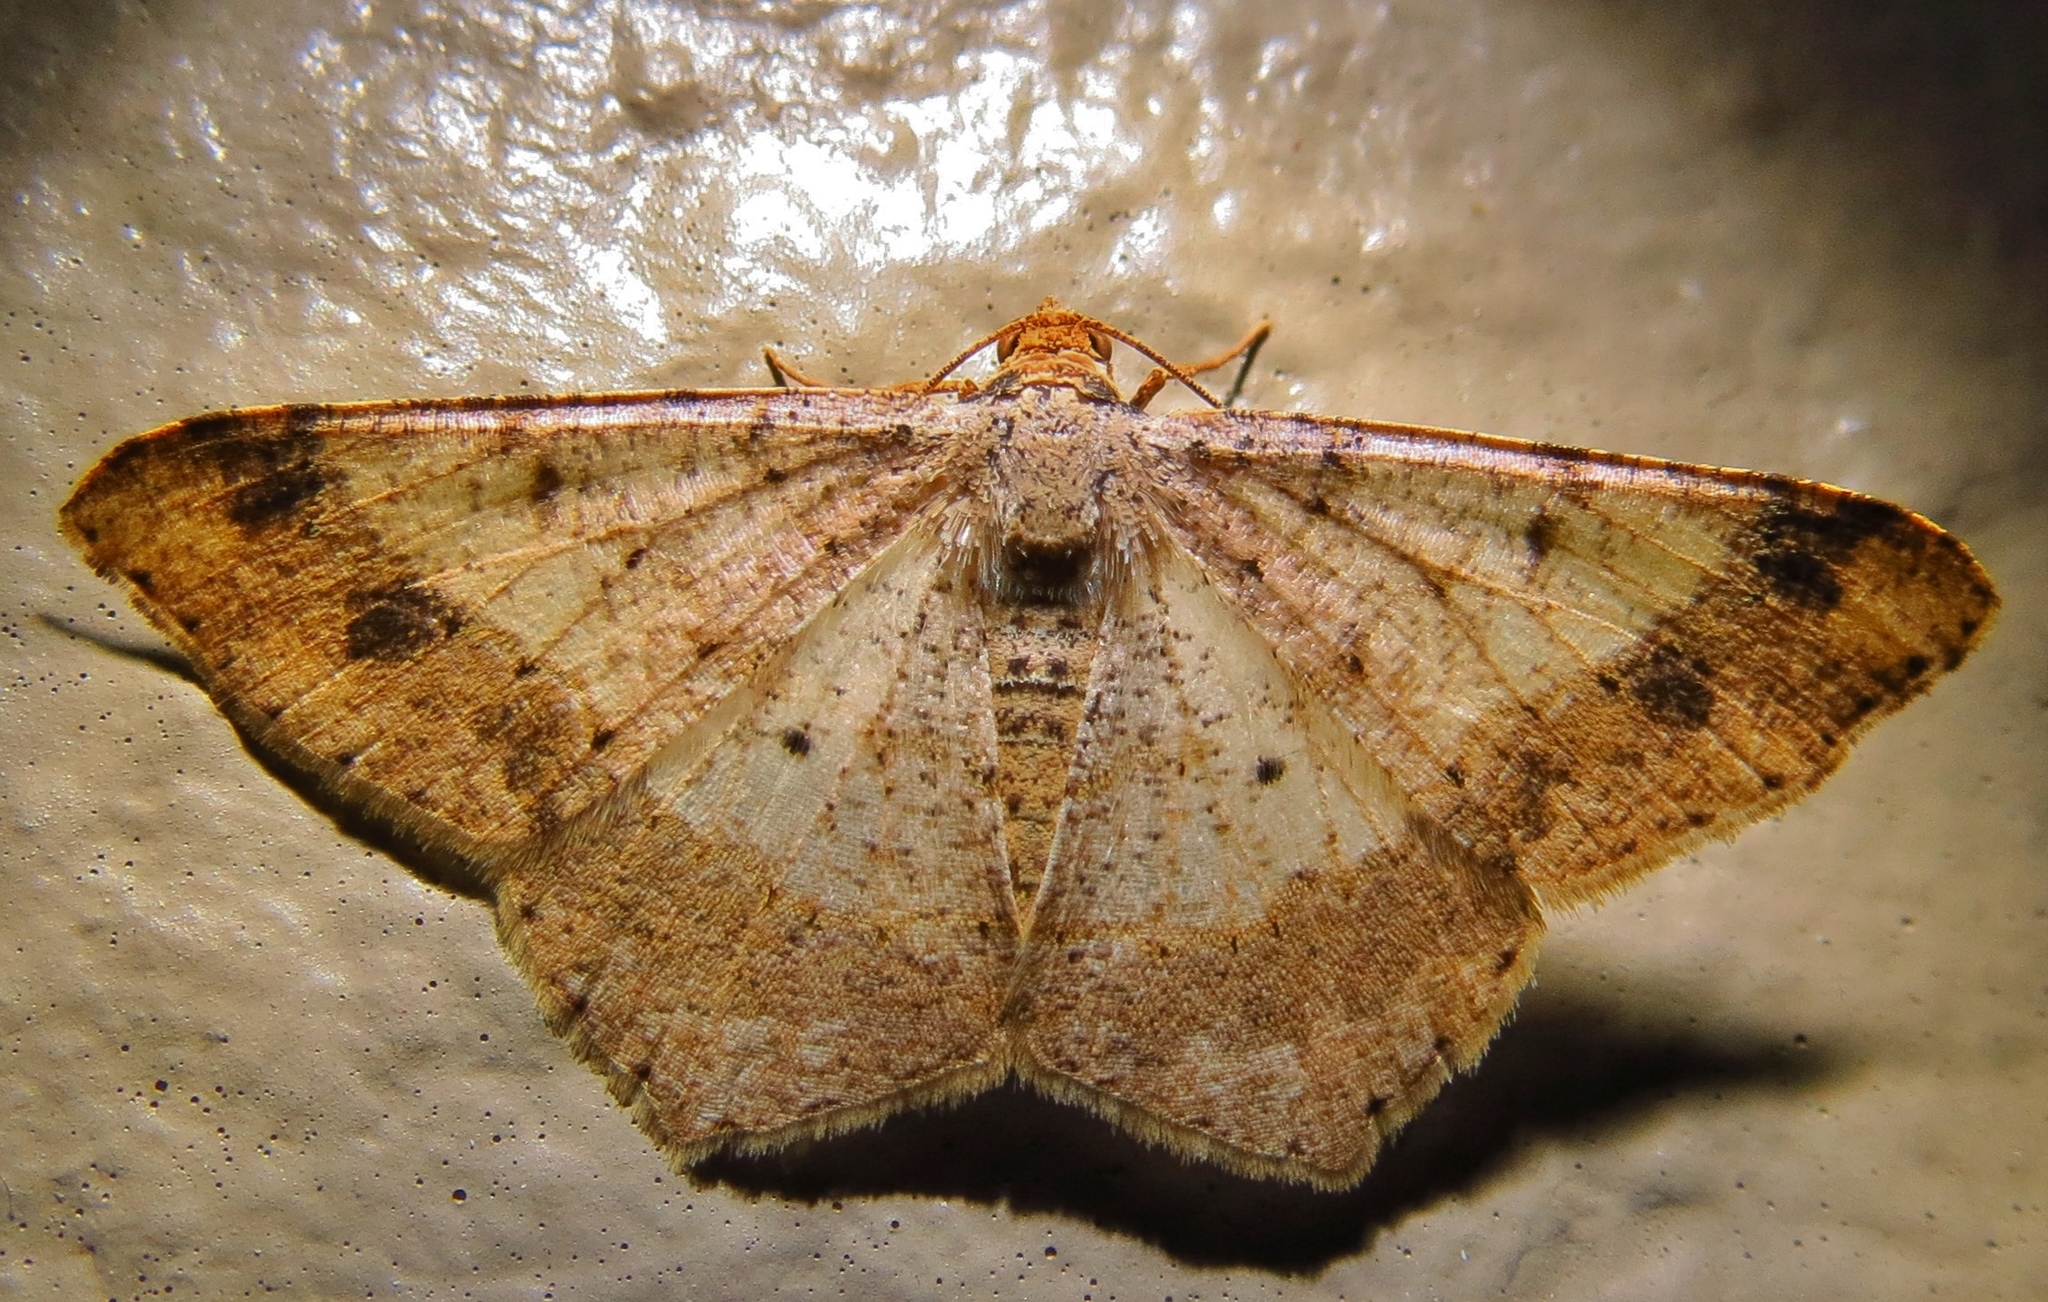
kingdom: Animalia
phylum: Arthropoda
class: Insecta
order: Lepidoptera
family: Geometridae
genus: Macaria
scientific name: Macaria abydata
